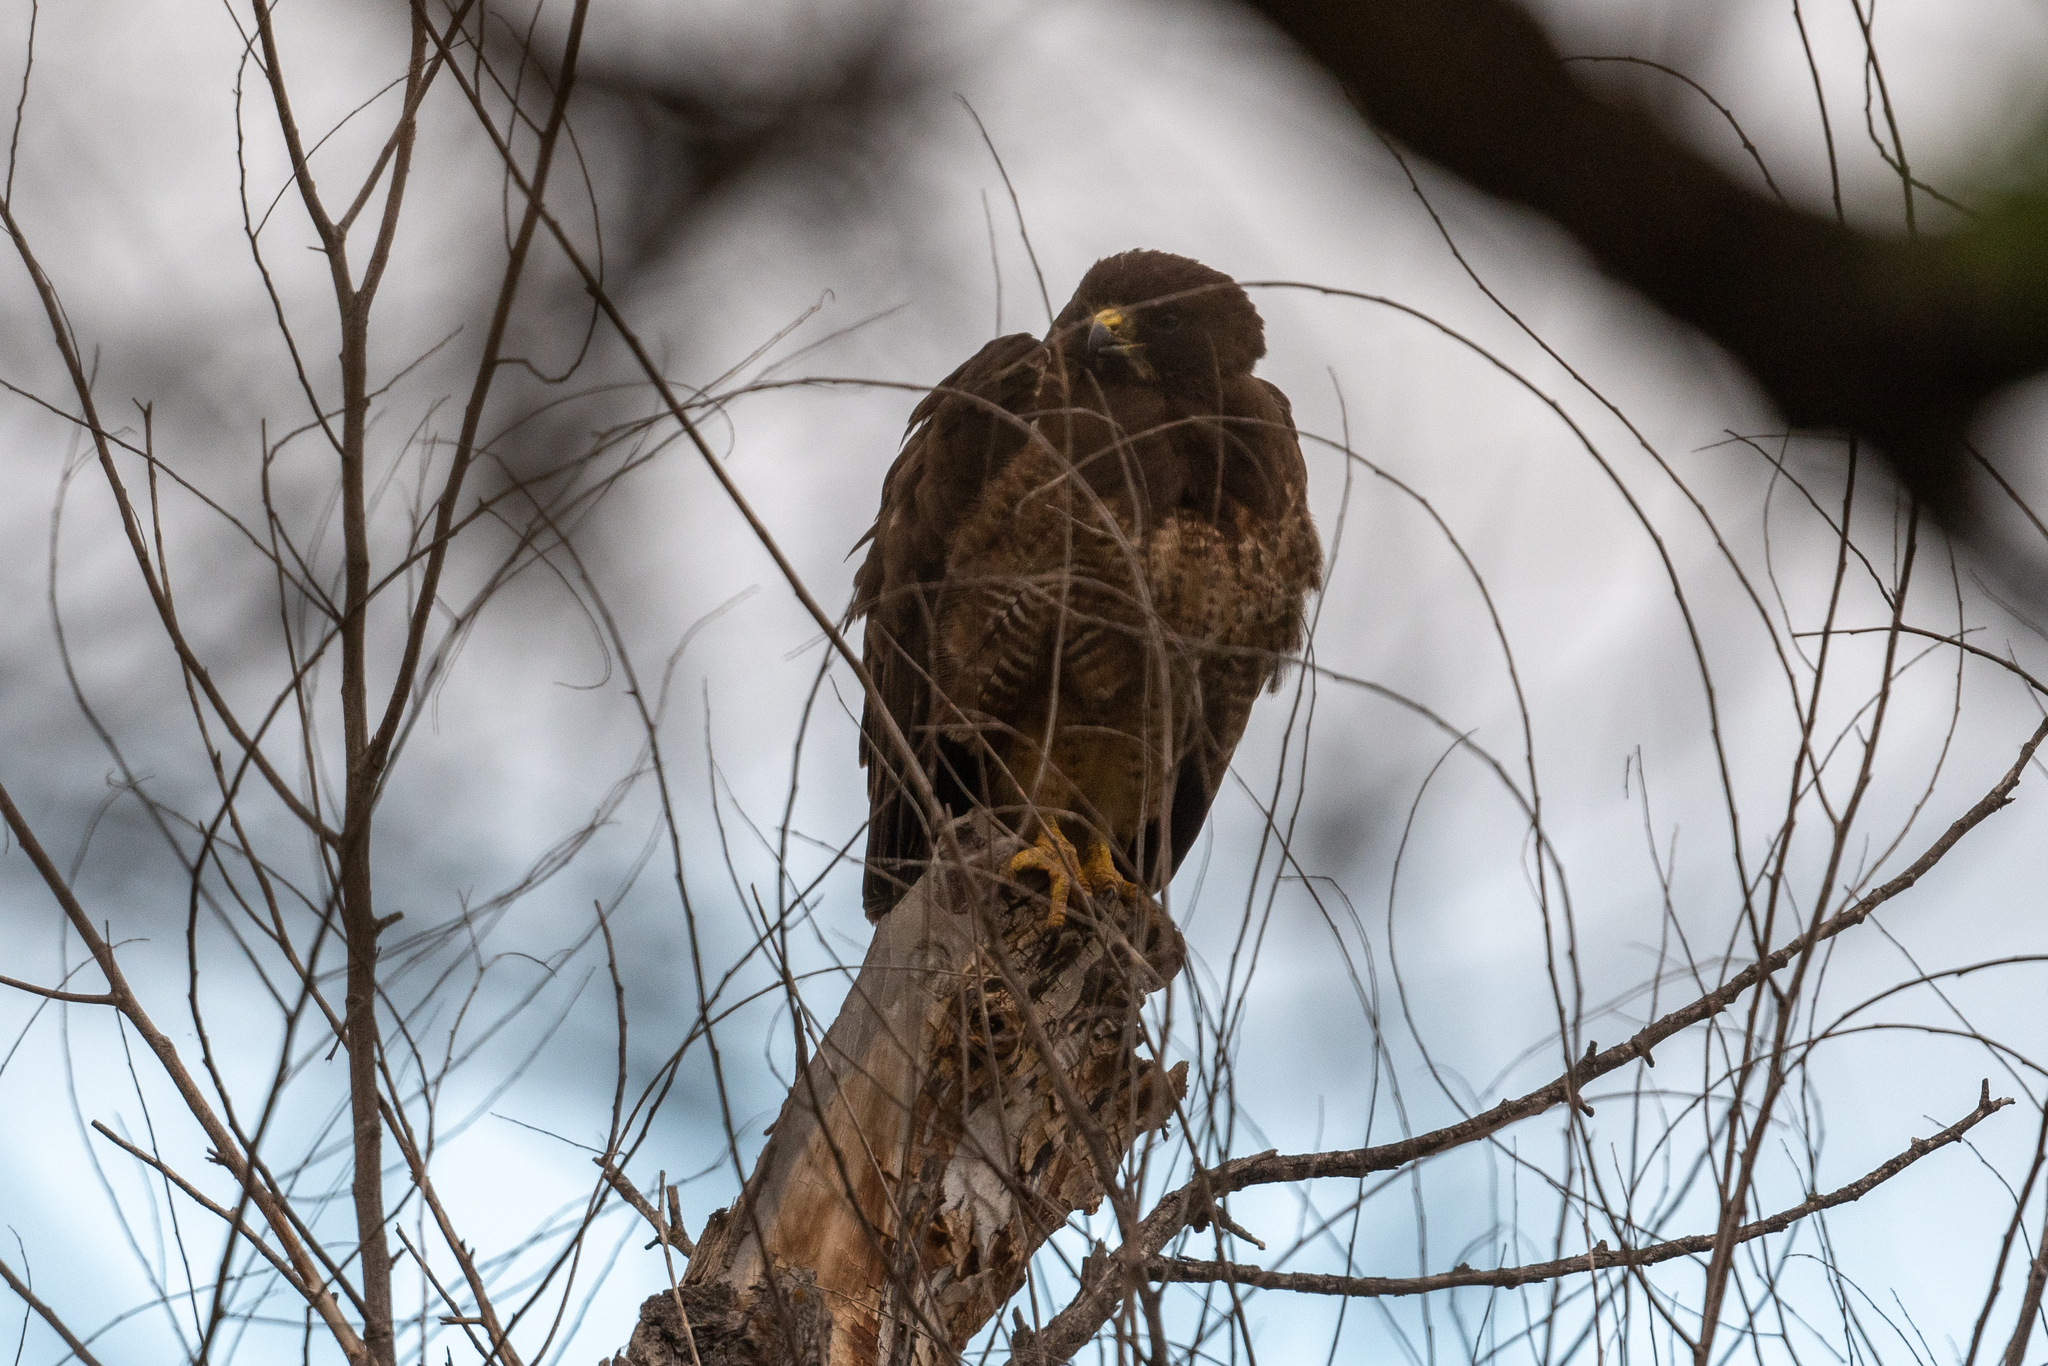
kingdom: Animalia
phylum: Chordata
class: Aves
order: Accipitriformes
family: Accipitridae
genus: Buteo
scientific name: Buteo swainsoni
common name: Swainson's hawk
